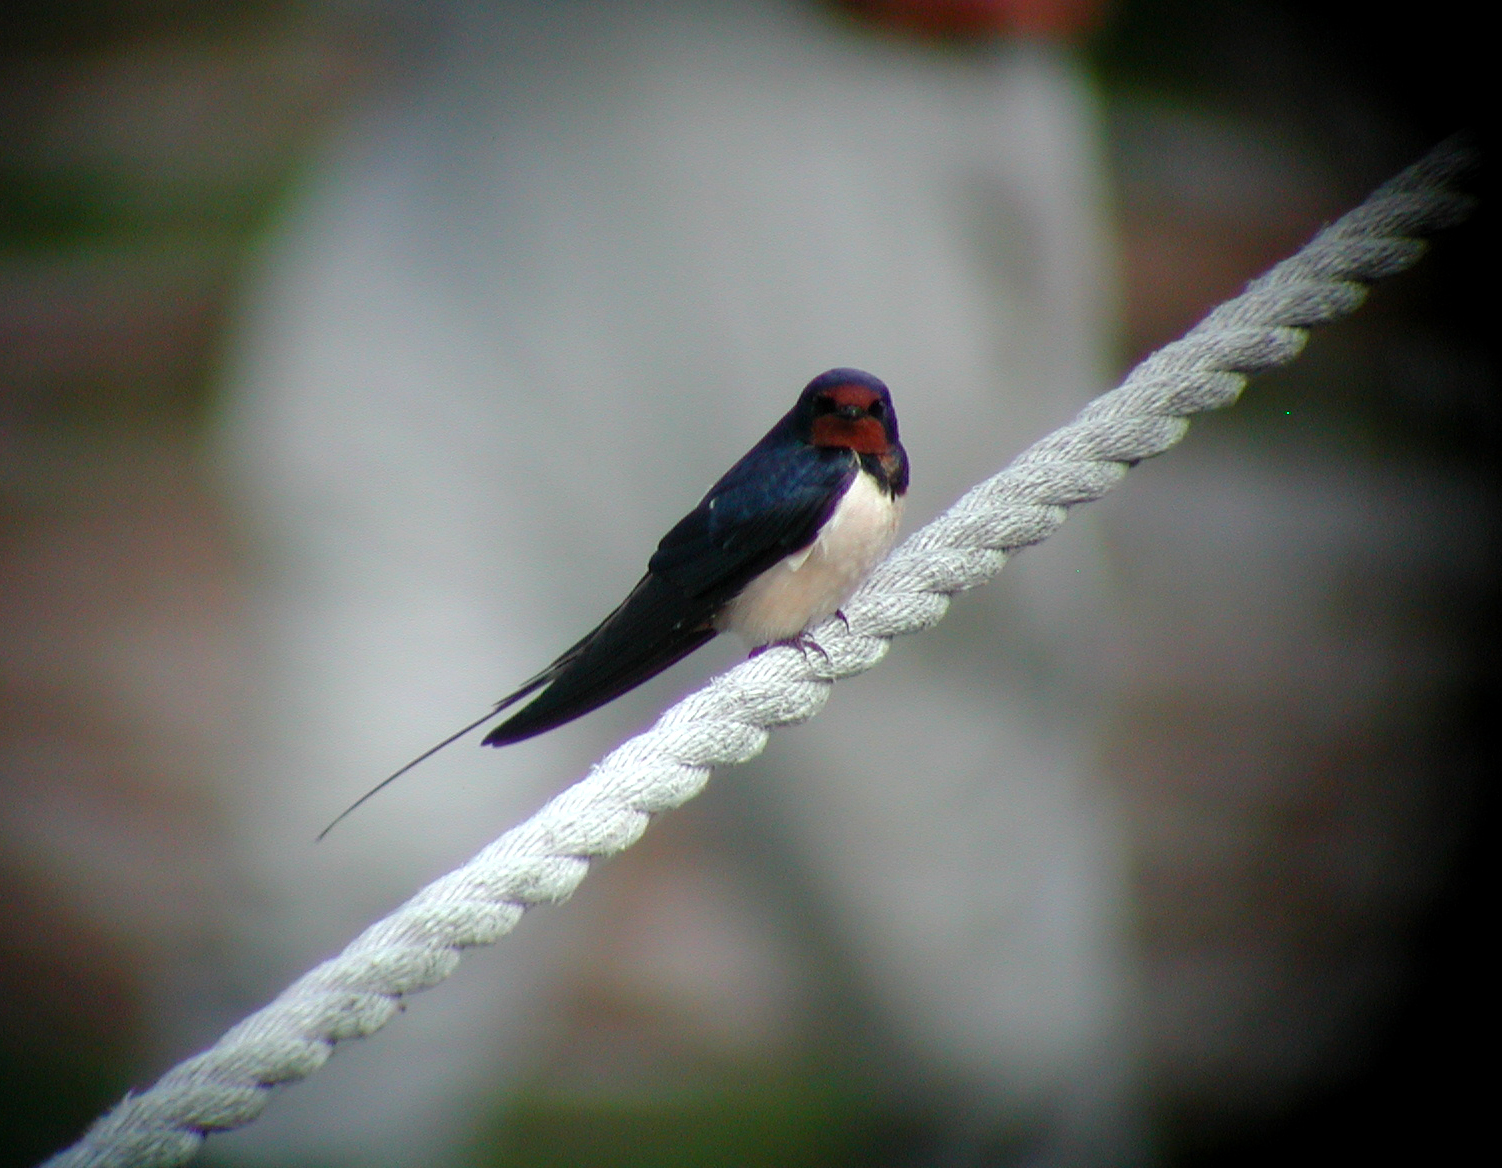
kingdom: Animalia
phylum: Chordata
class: Aves
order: Passeriformes
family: Hirundinidae
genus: Hirundo
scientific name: Hirundo rustica
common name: Barn swallow
